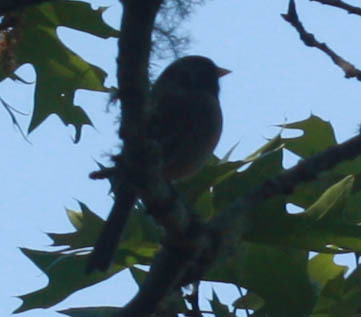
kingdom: Animalia
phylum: Chordata
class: Aves
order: Passeriformes
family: Passerellidae
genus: Junco
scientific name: Junco hyemalis
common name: Dark-eyed junco
